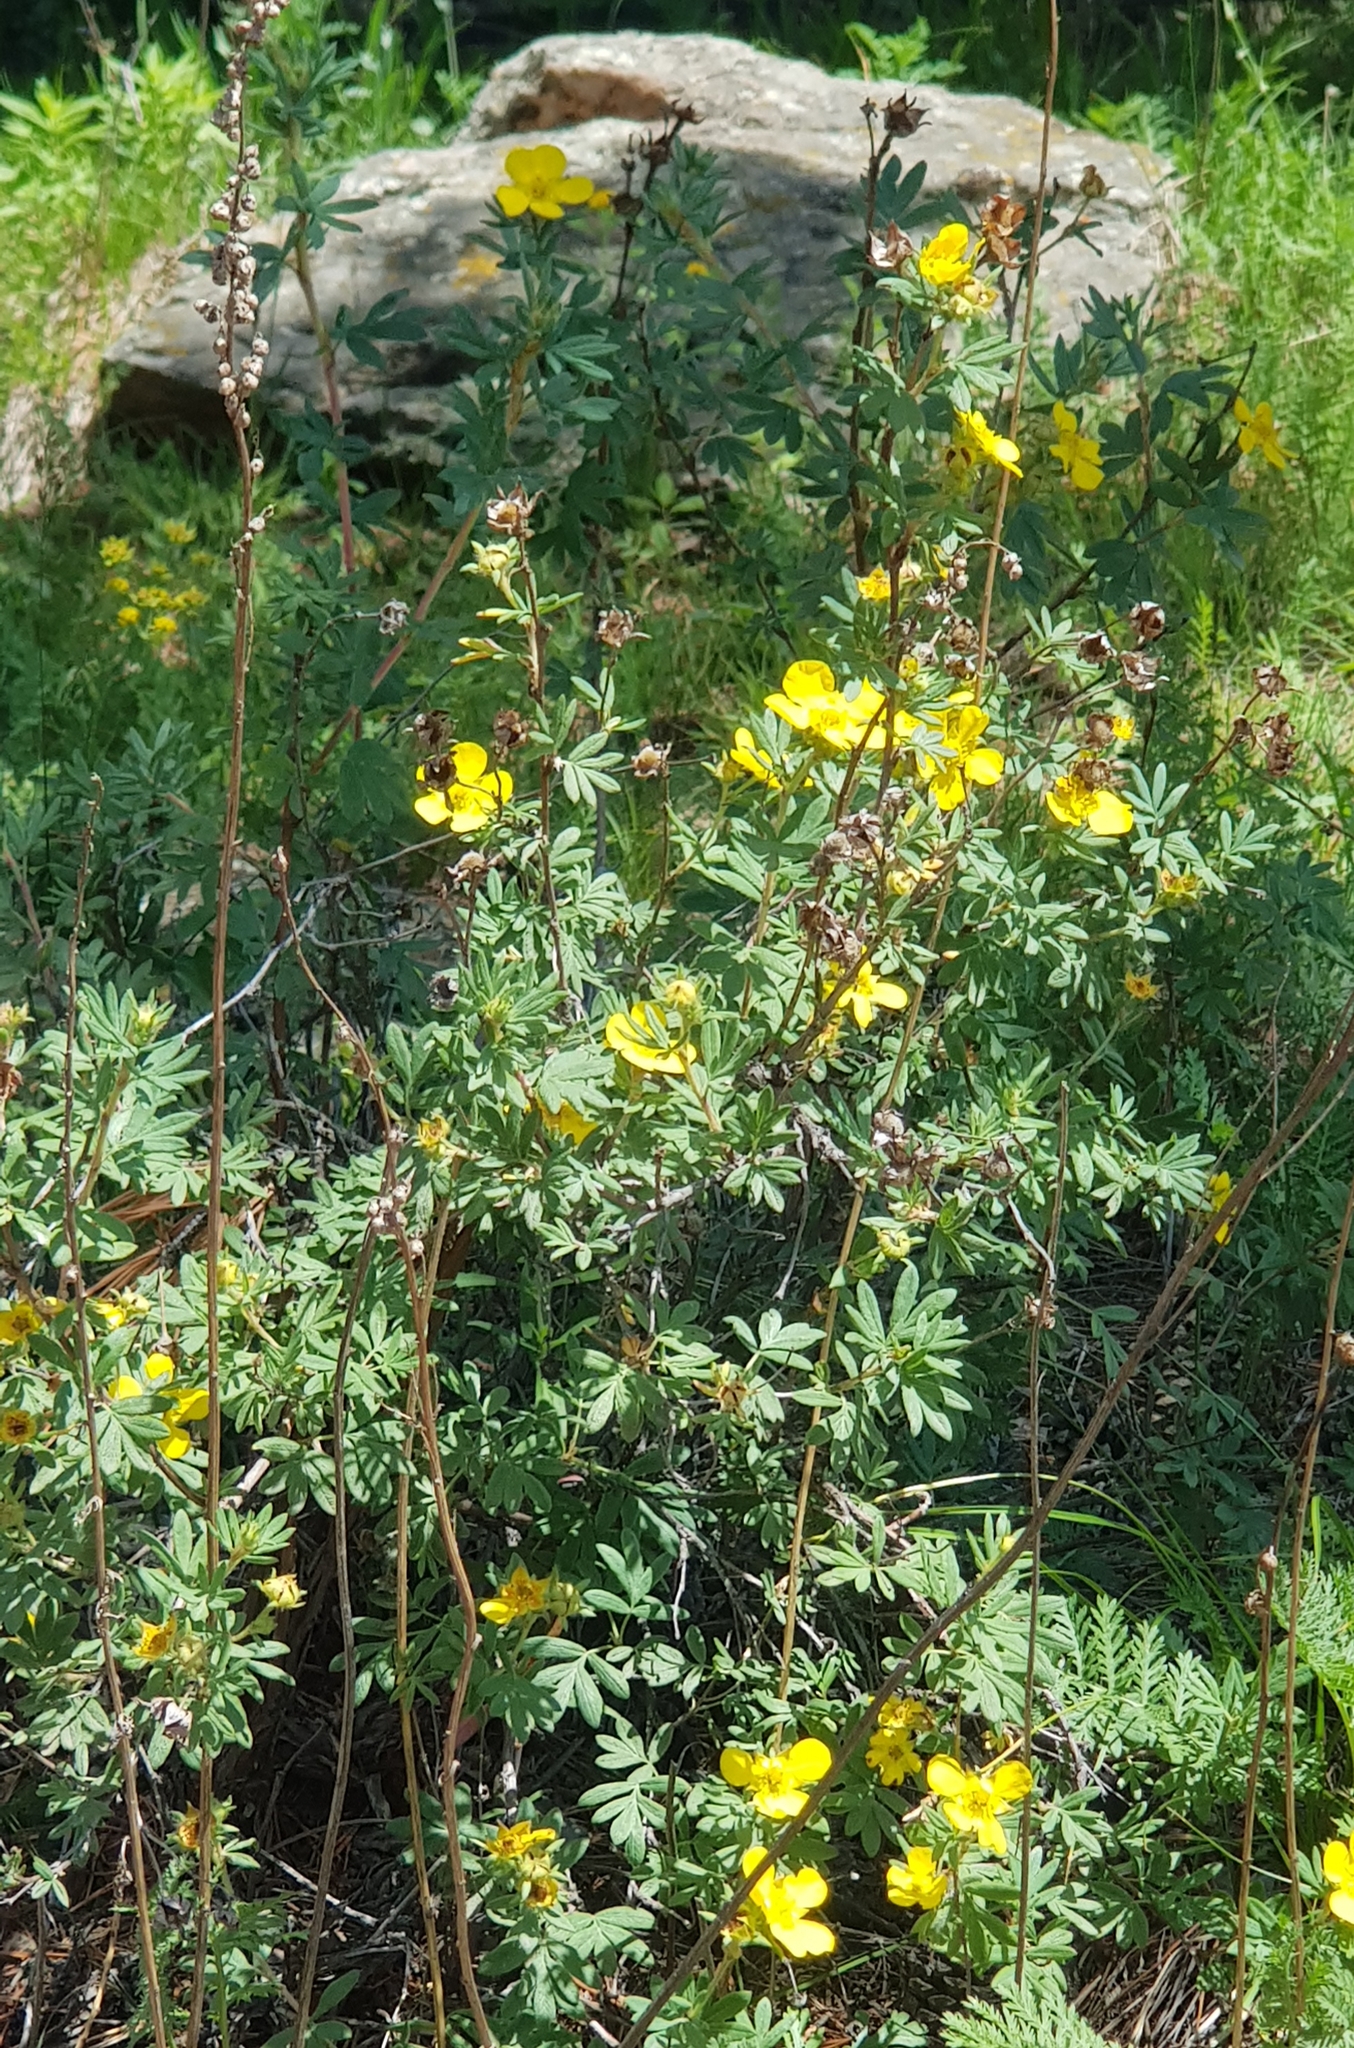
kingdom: Plantae
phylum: Tracheophyta
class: Magnoliopsida
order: Rosales
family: Rosaceae
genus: Dasiphora
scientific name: Dasiphora fruticosa
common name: Shrubby cinquefoil
